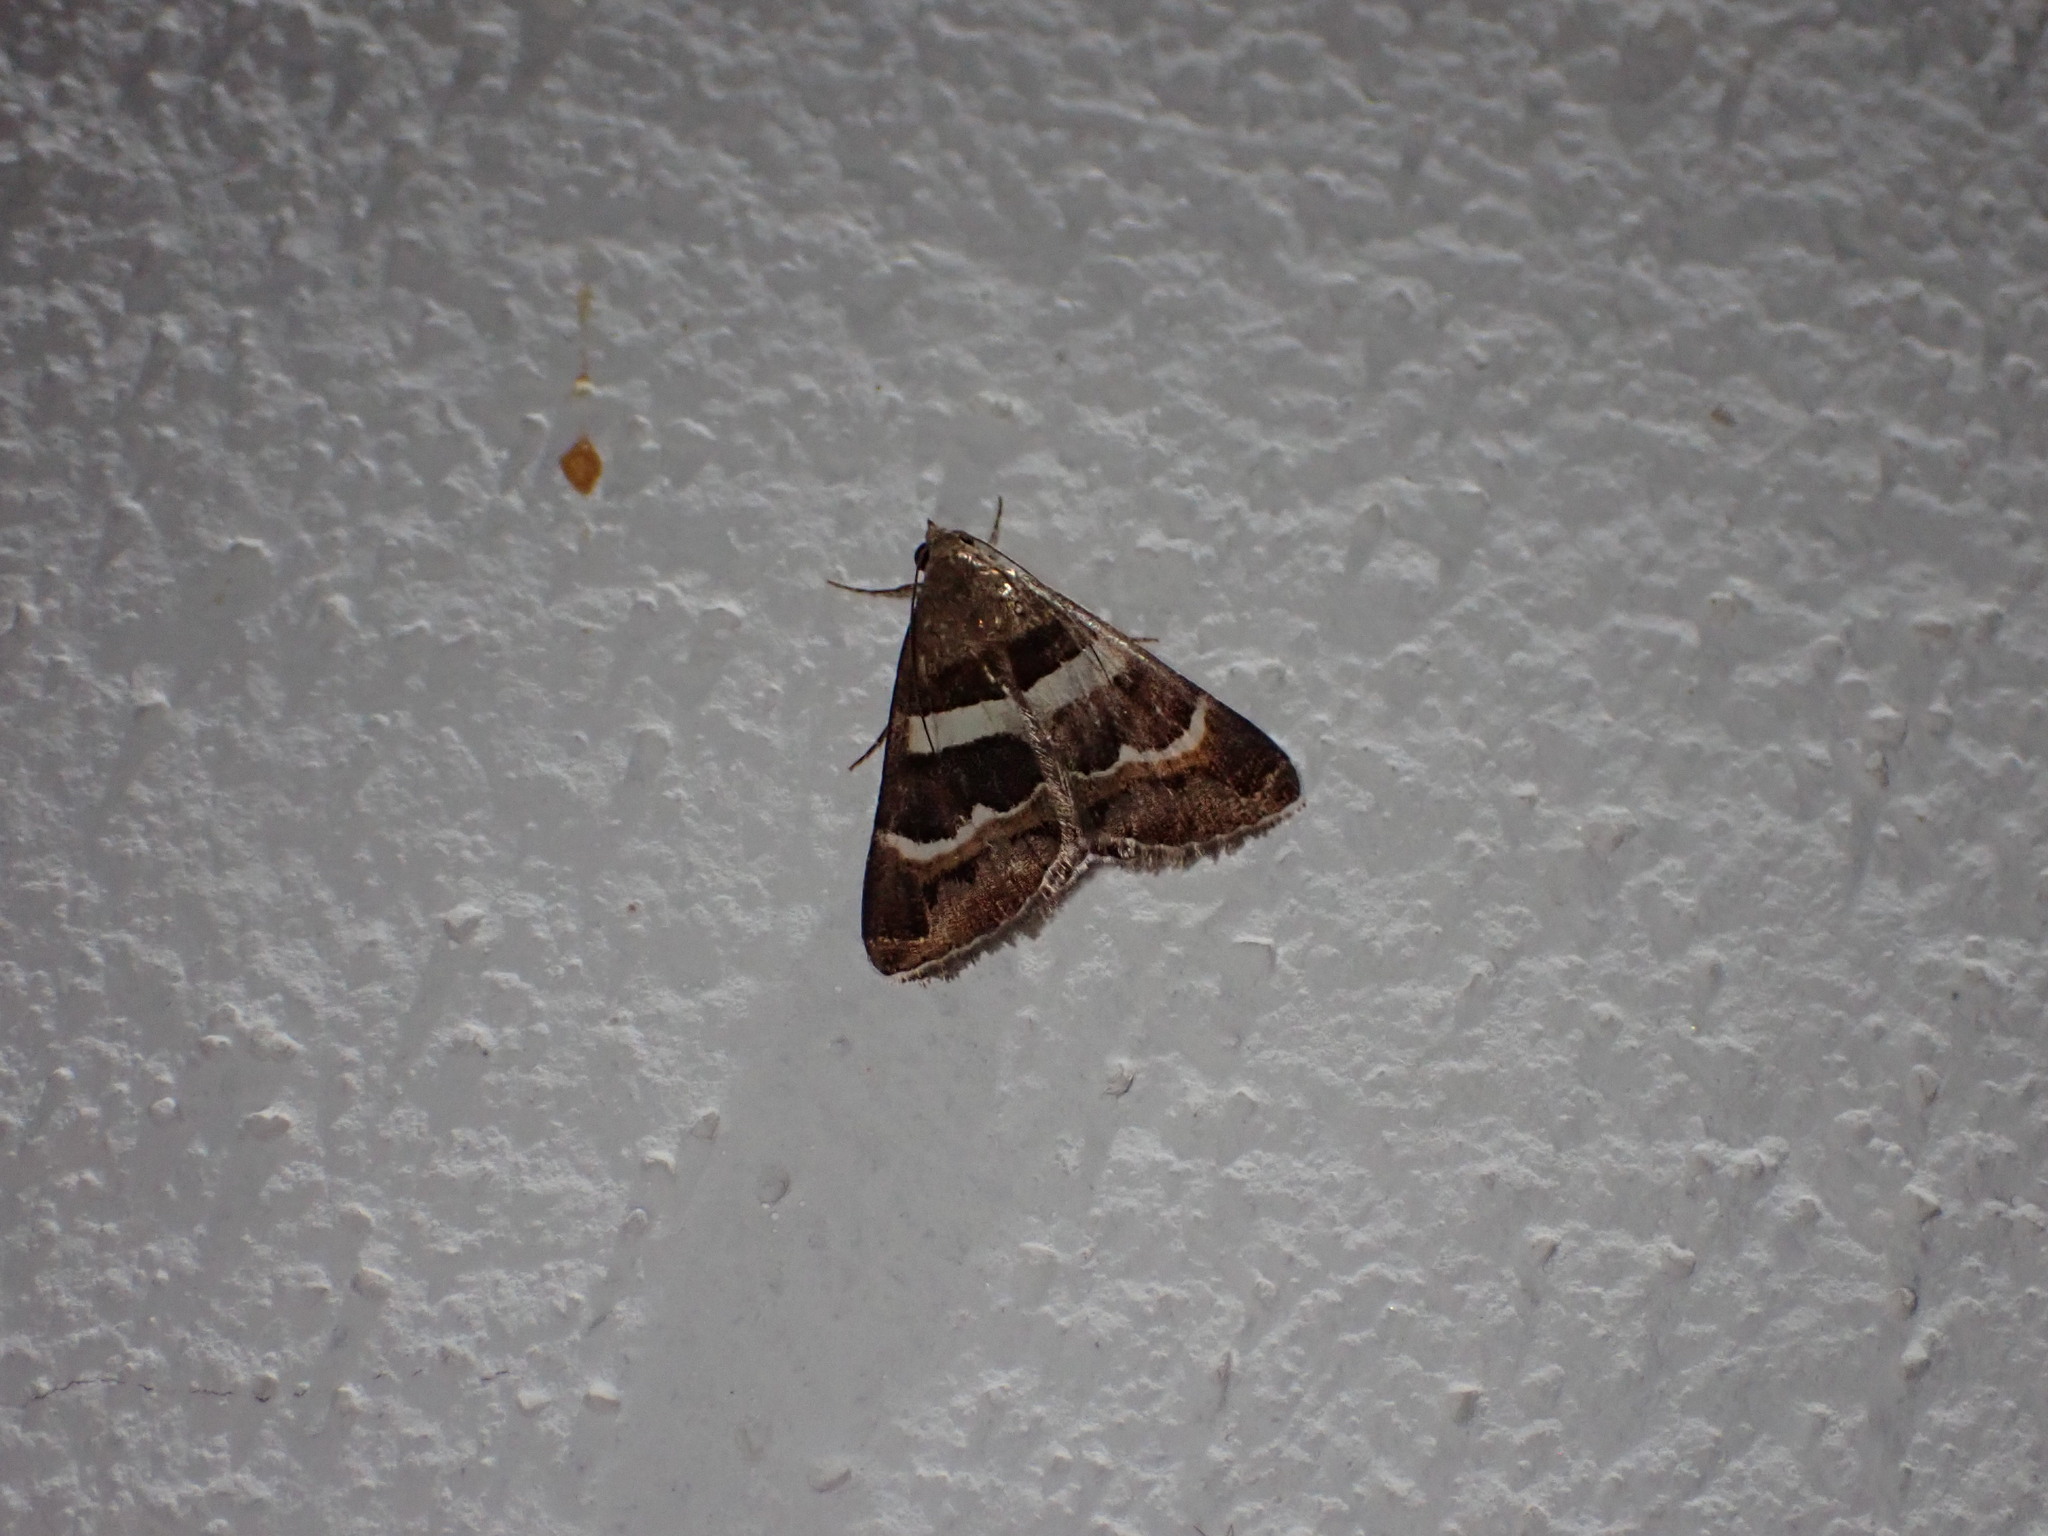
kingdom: Animalia
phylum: Arthropoda
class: Insecta
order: Lepidoptera
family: Erebidae
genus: Grammodes
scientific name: Grammodes stolida
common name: Geometrician
